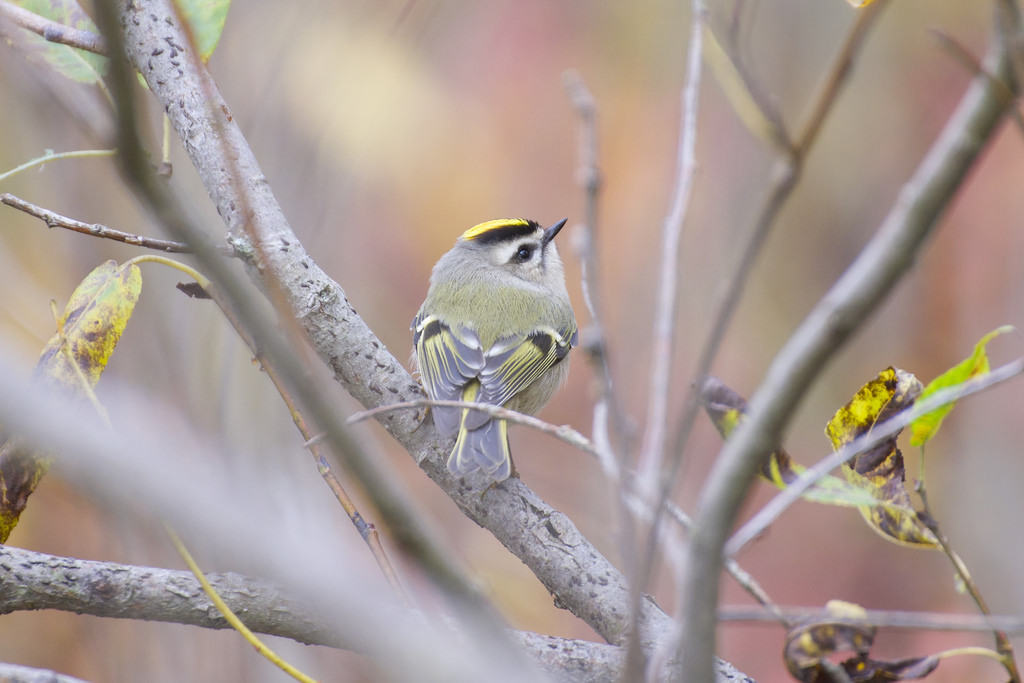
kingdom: Animalia
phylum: Chordata
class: Aves
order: Passeriformes
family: Regulidae
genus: Regulus
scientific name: Regulus satrapa
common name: Golden-crowned kinglet
